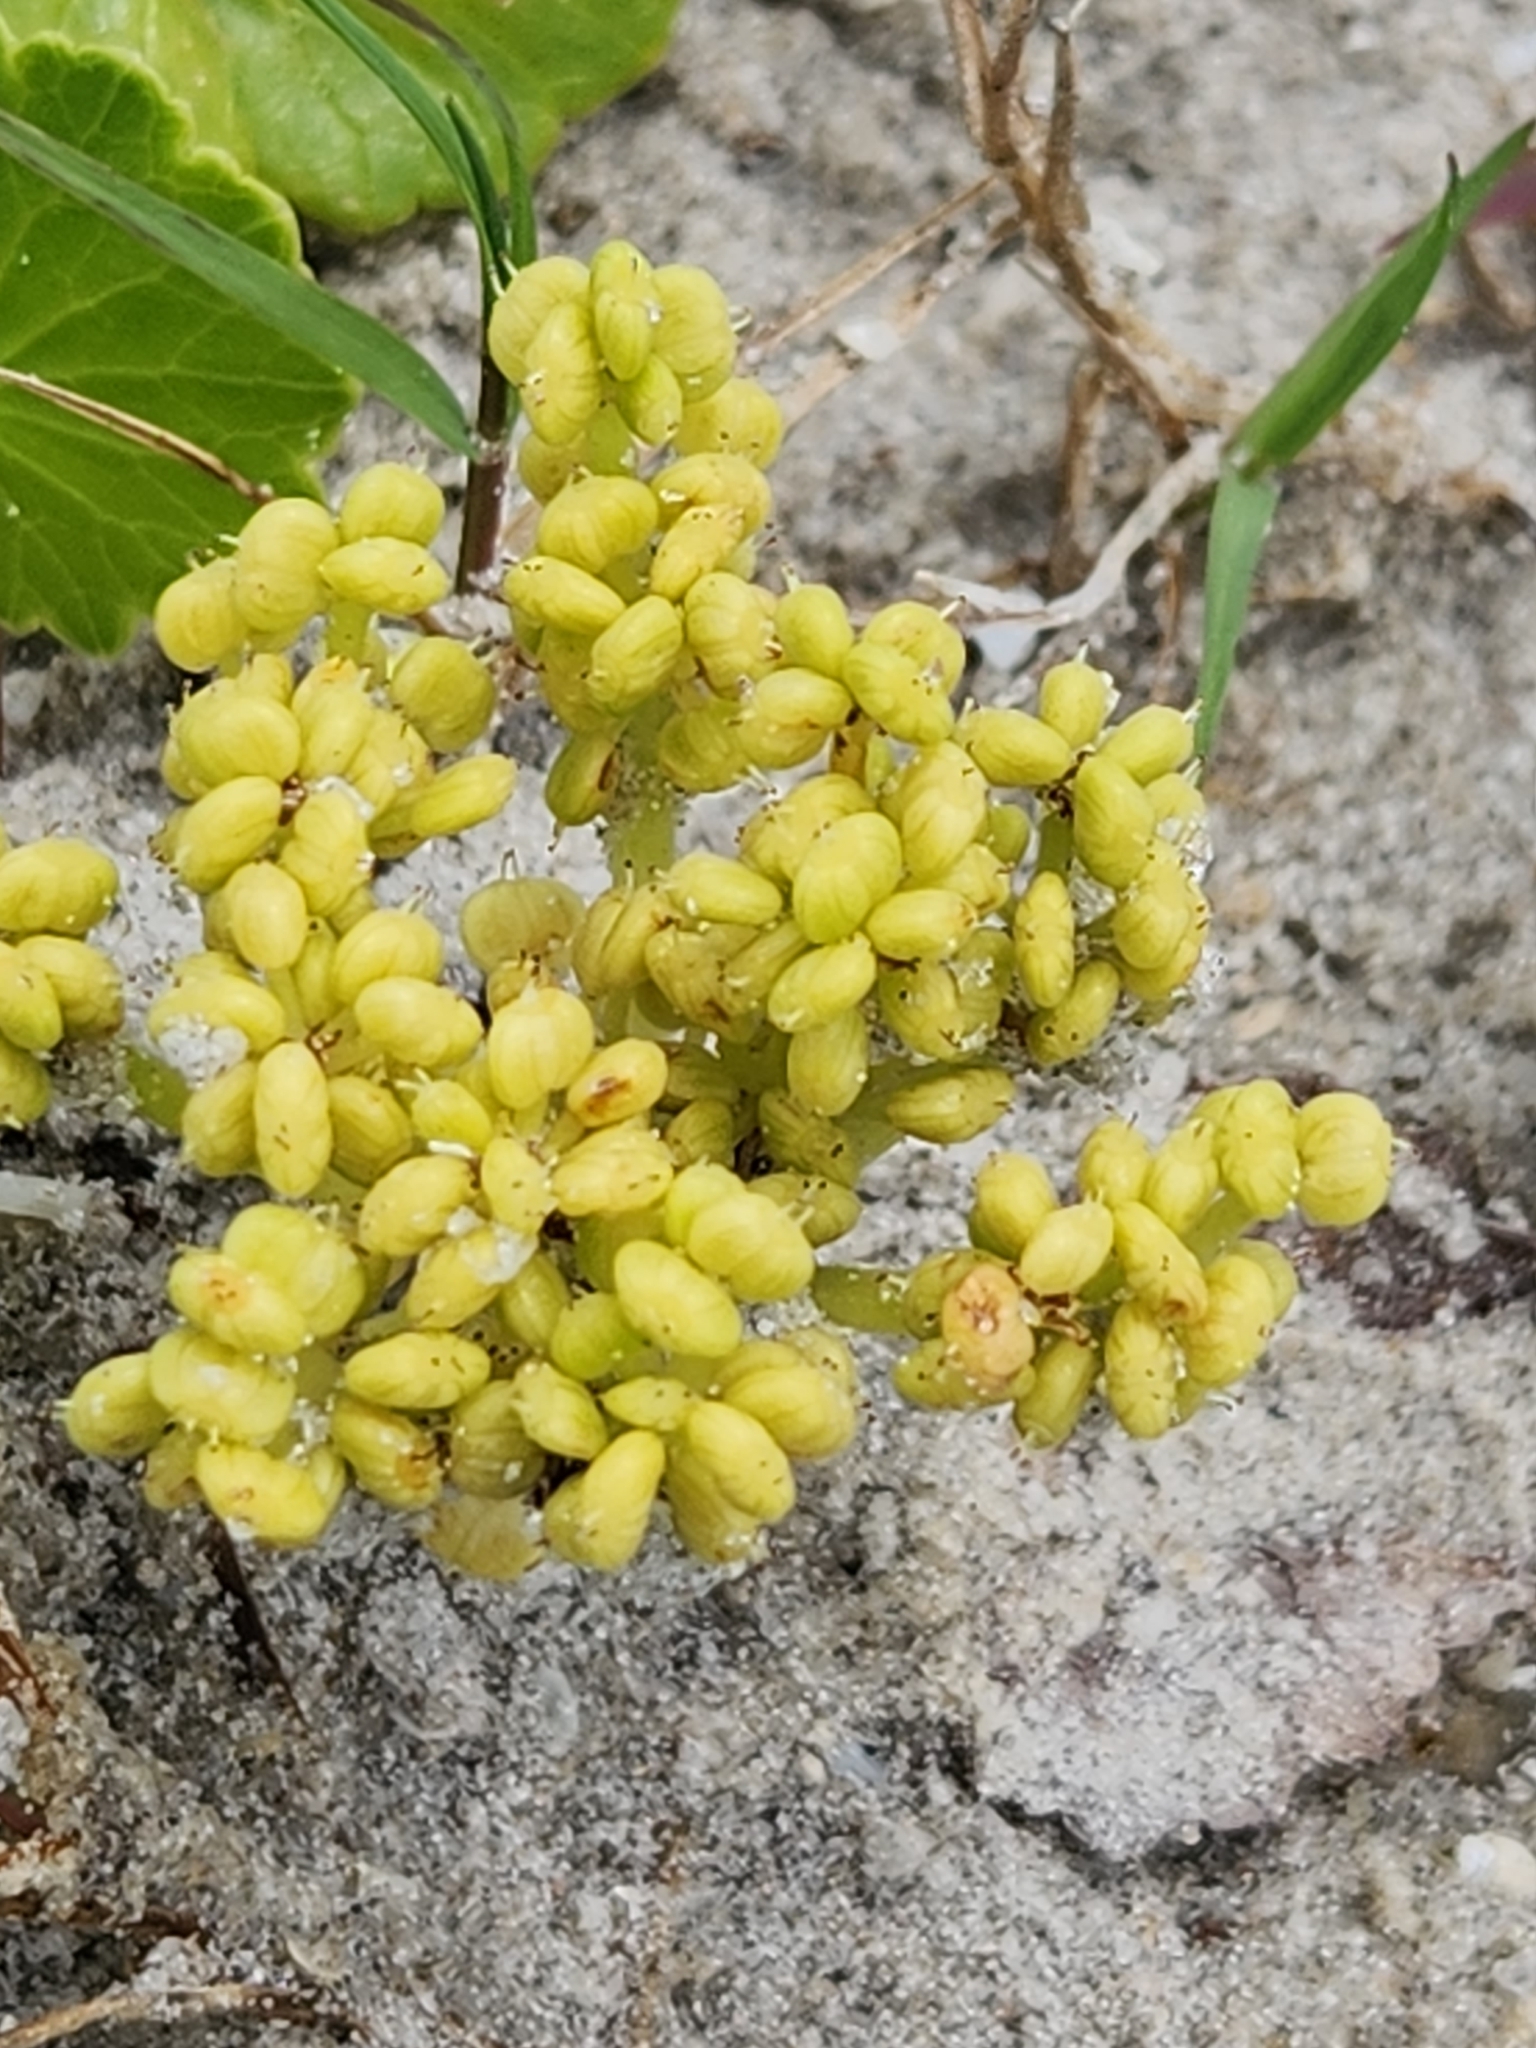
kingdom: Plantae
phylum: Tracheophyta
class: Magnoliopsida
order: Apiales
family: Araliaceae
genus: Hydrocotyle
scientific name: Hydrocotyle bonariensis
